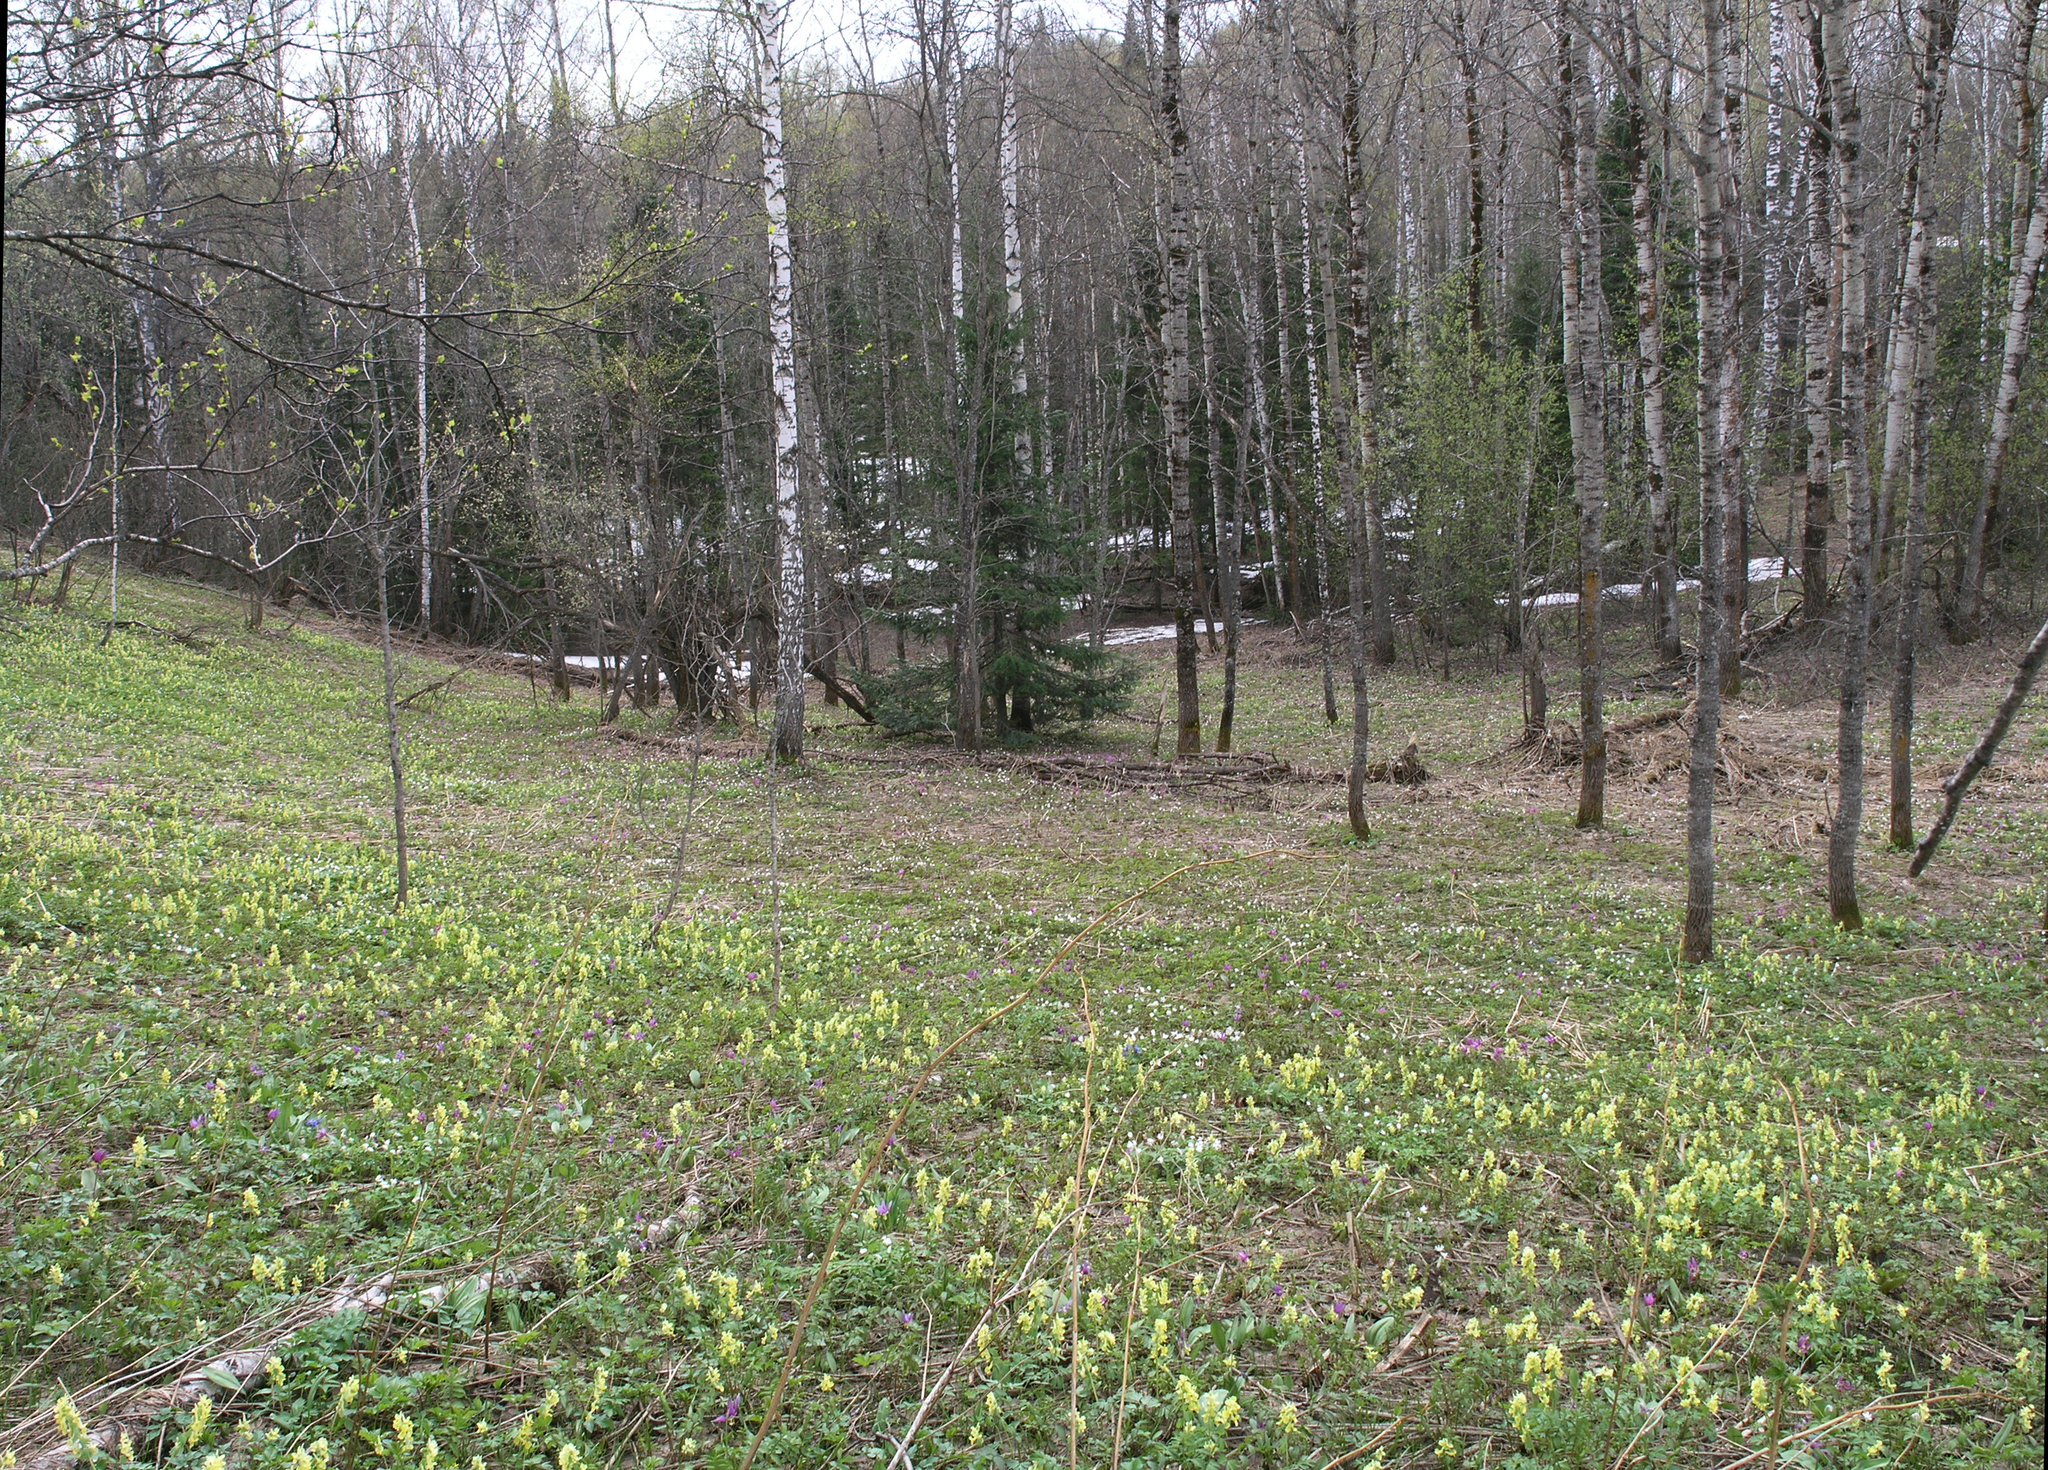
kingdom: Plantae
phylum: Tracheophyta
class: Magnoliopsida
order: Ranunculales
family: Papaveraceae
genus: Corydalis
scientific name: Corydalis bracteata
